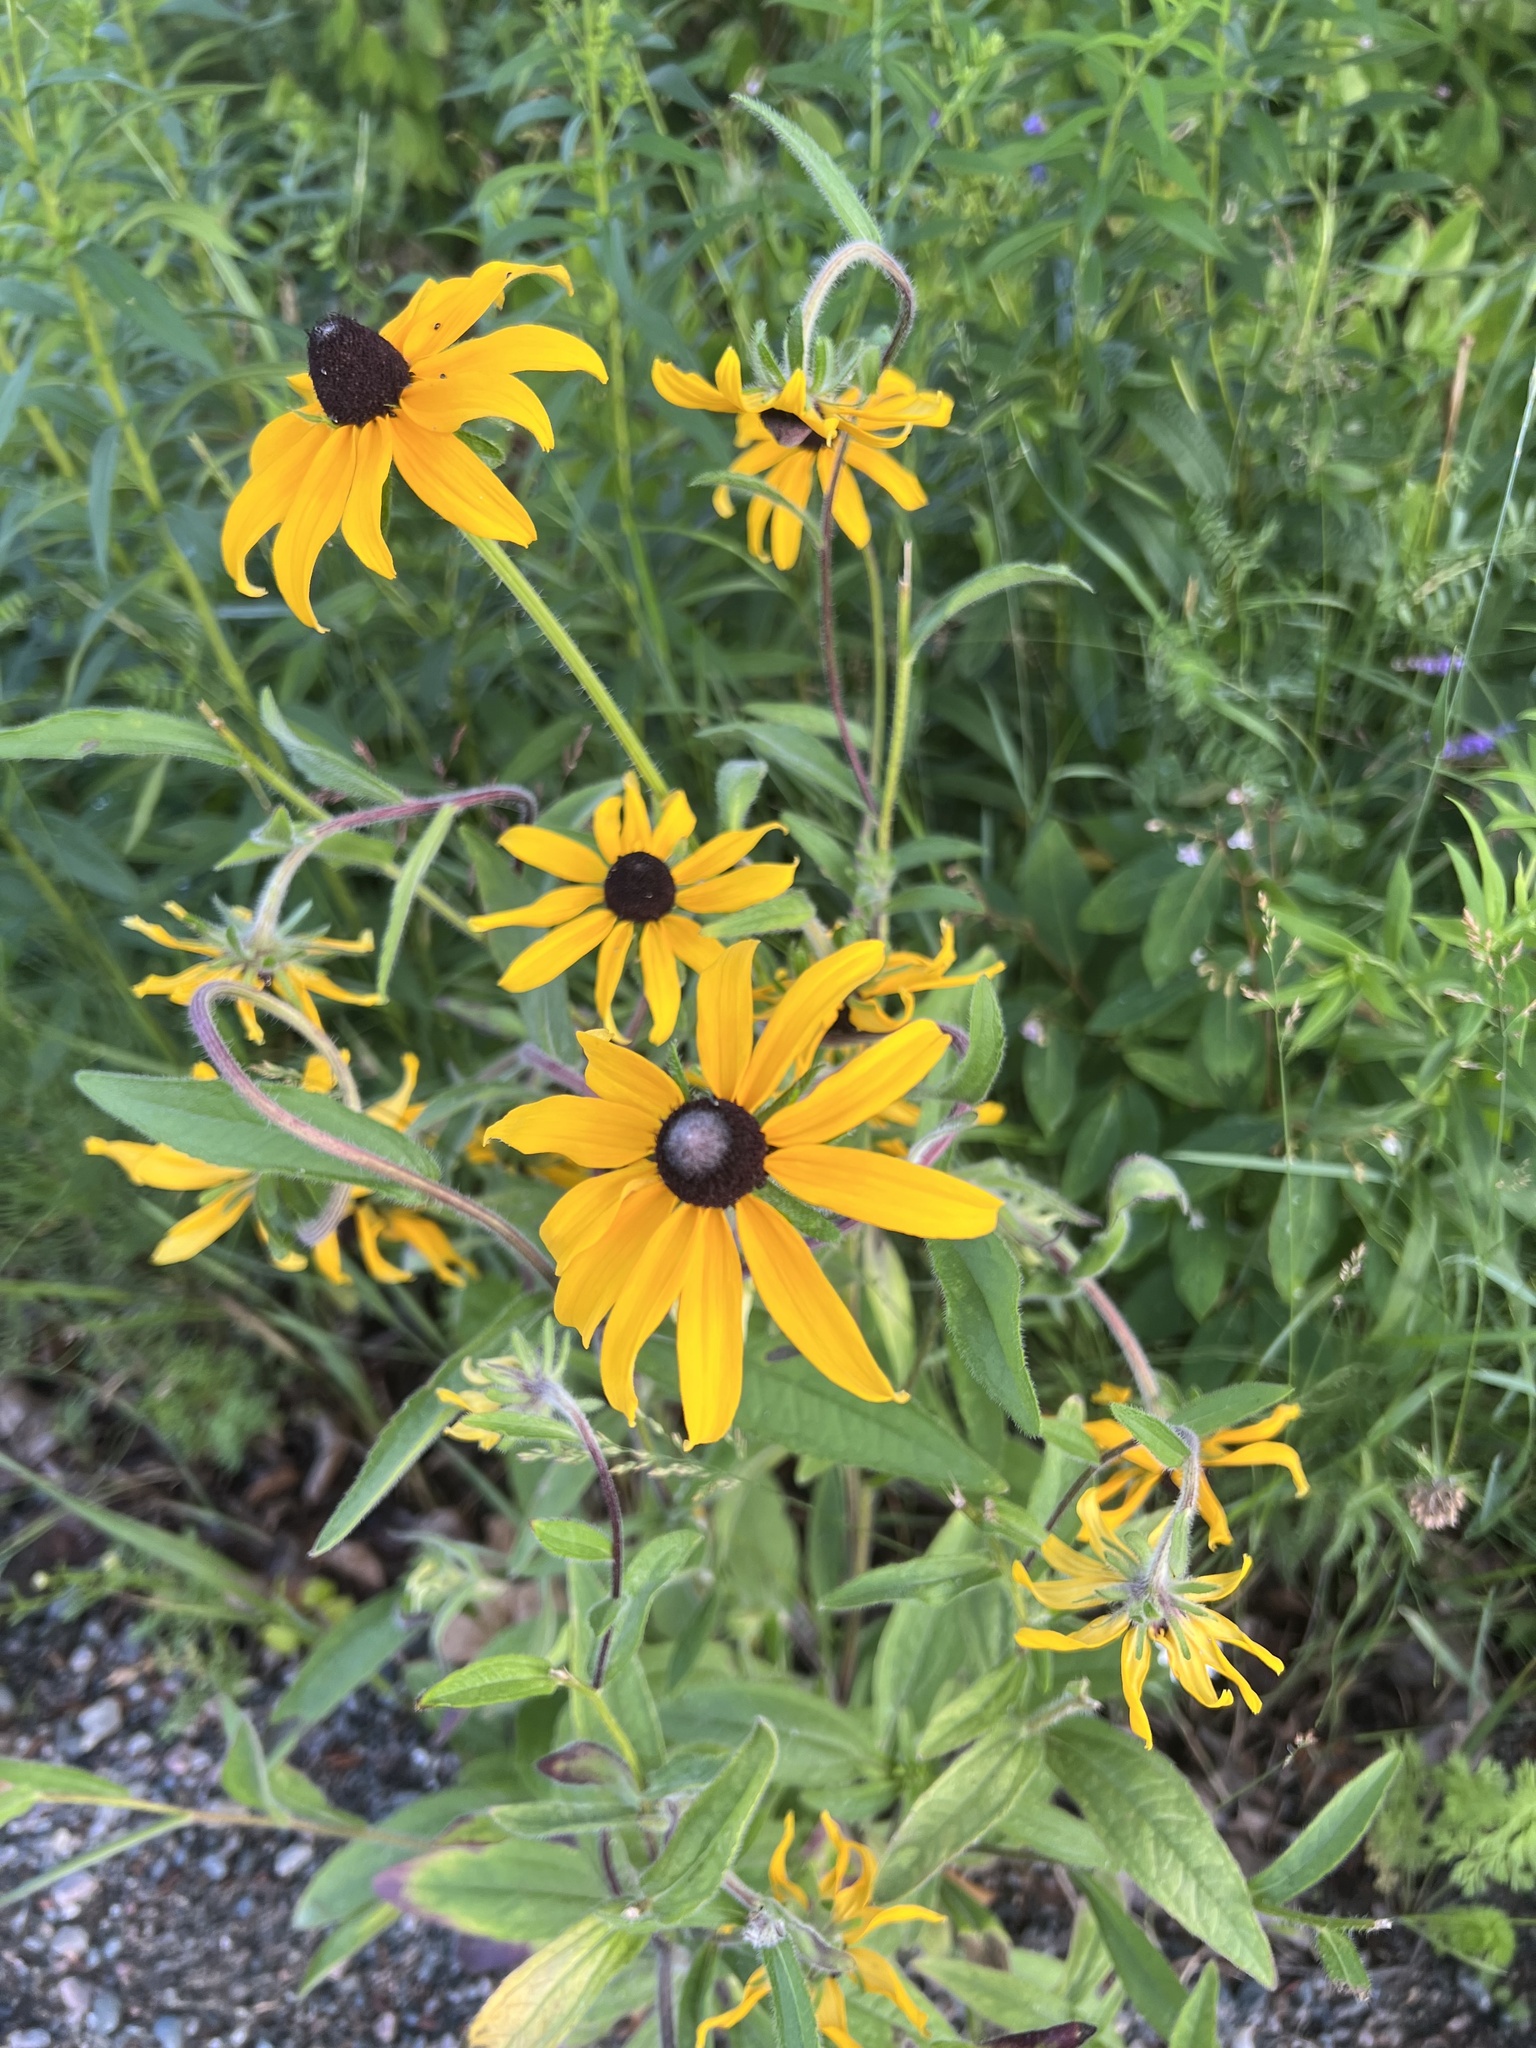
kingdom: Plantae
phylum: Tracheophyta
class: Magnoliopsida
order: Asterales
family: Asteraceae
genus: Rudbeckia
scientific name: Rudbeckia hirta
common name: Black-eyed-susan
